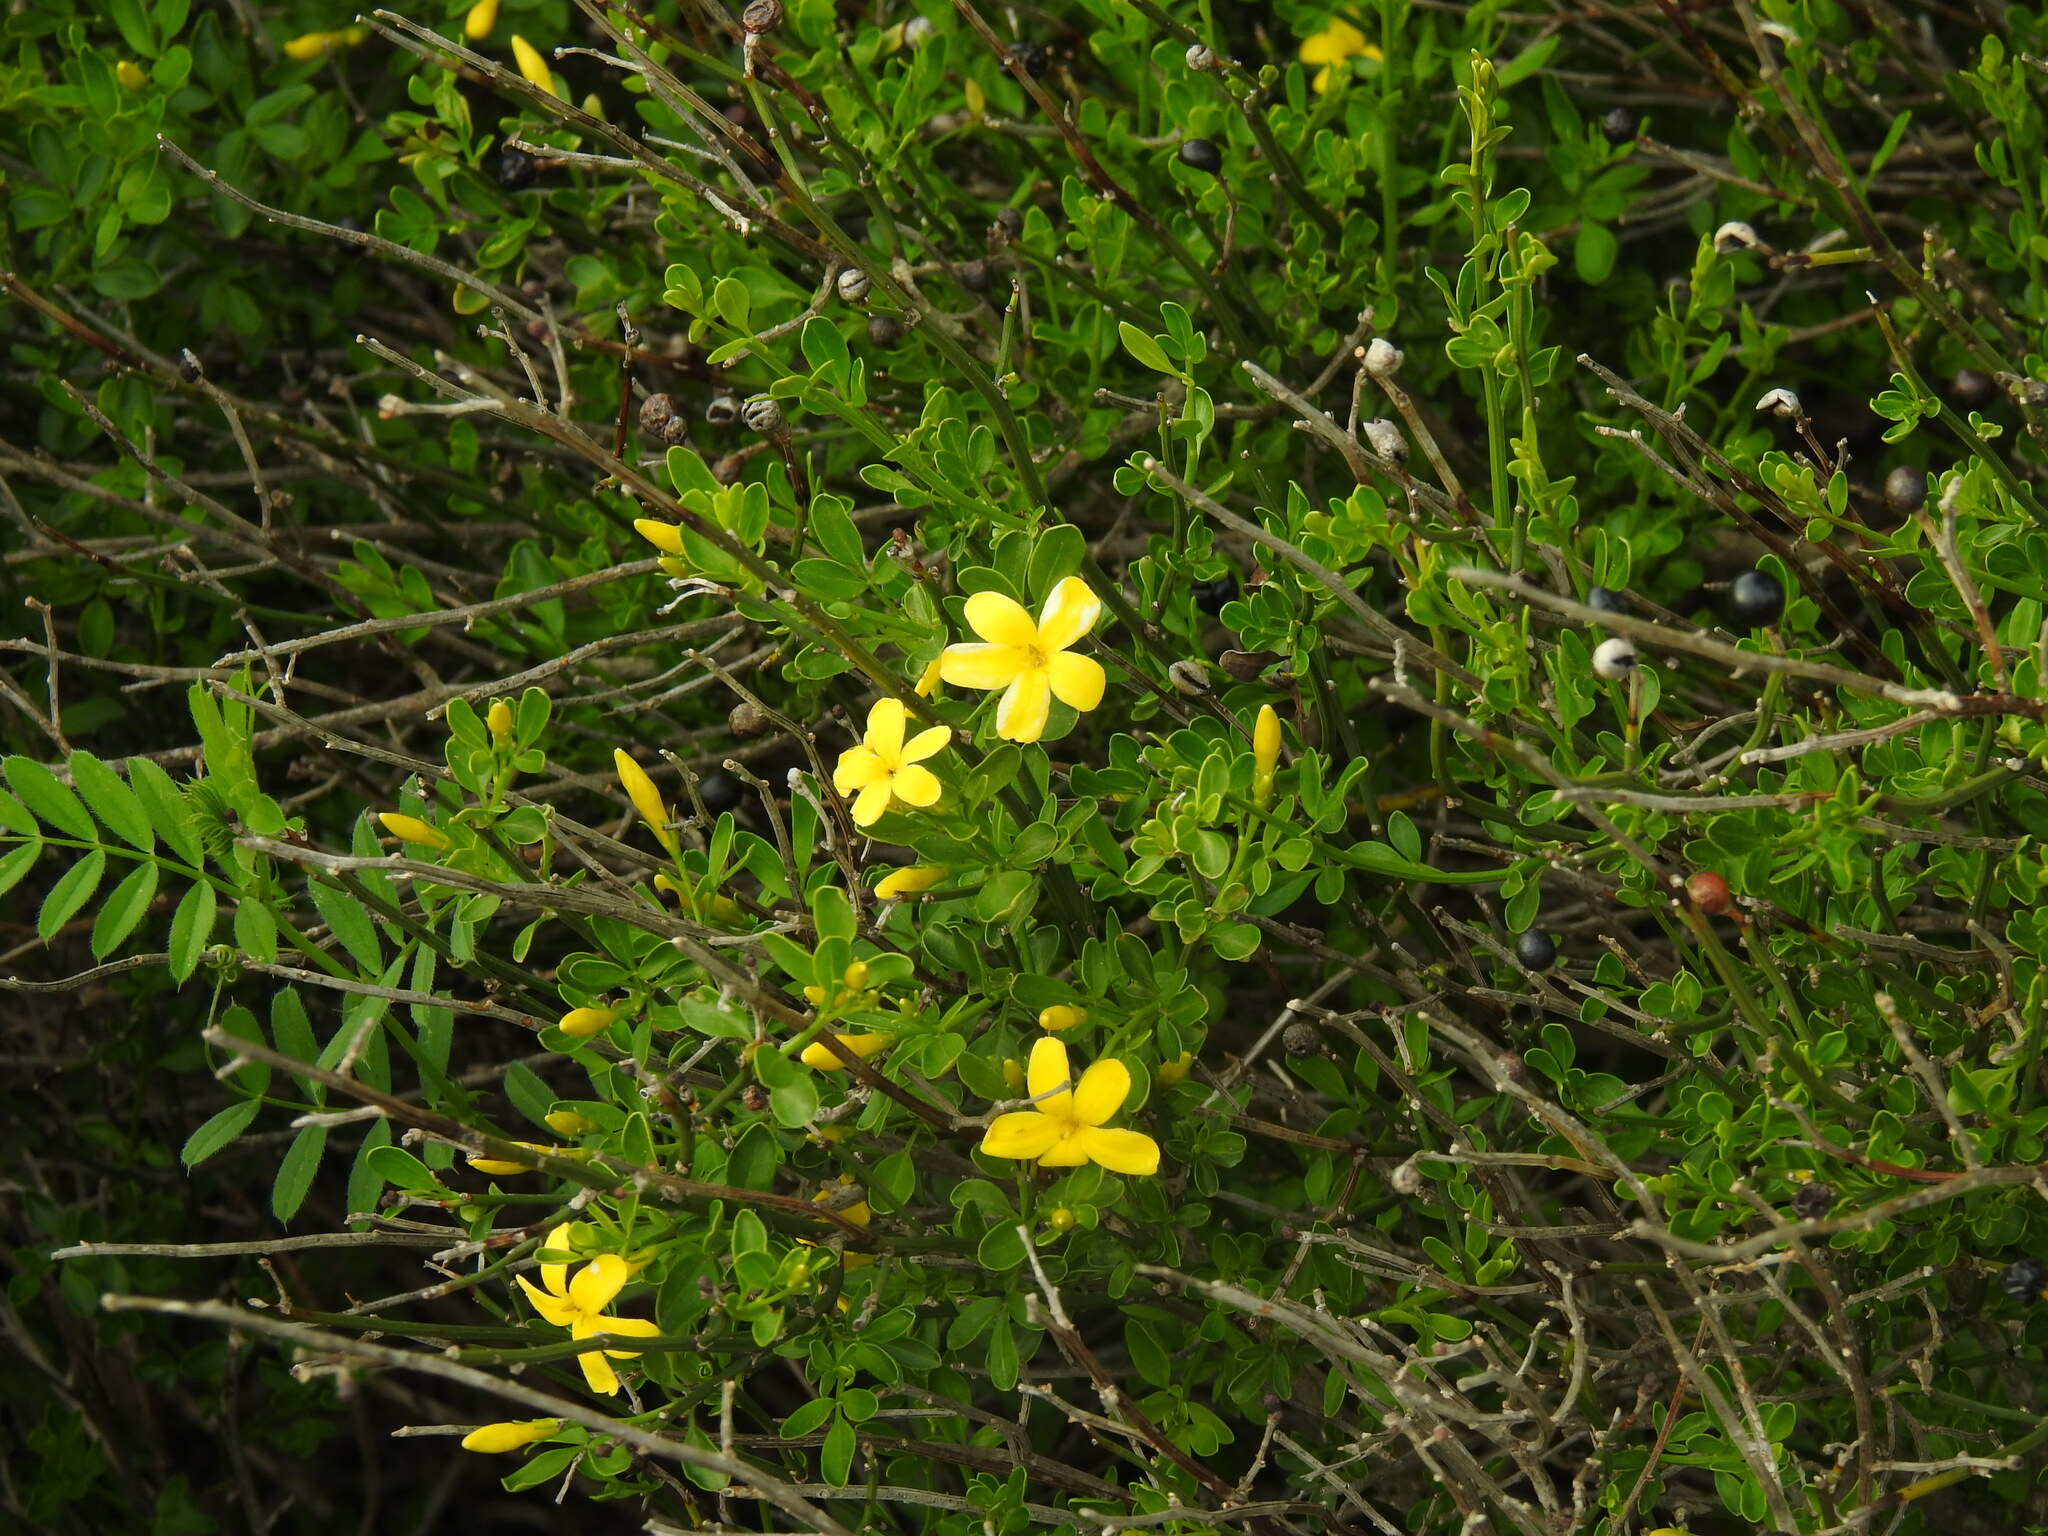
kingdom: Plantae
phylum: Tracheophyta
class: Magnoliopsida
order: Lamiales
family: Oleaceae
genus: Chrysojasminum
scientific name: Chrysojasminum fruticans
